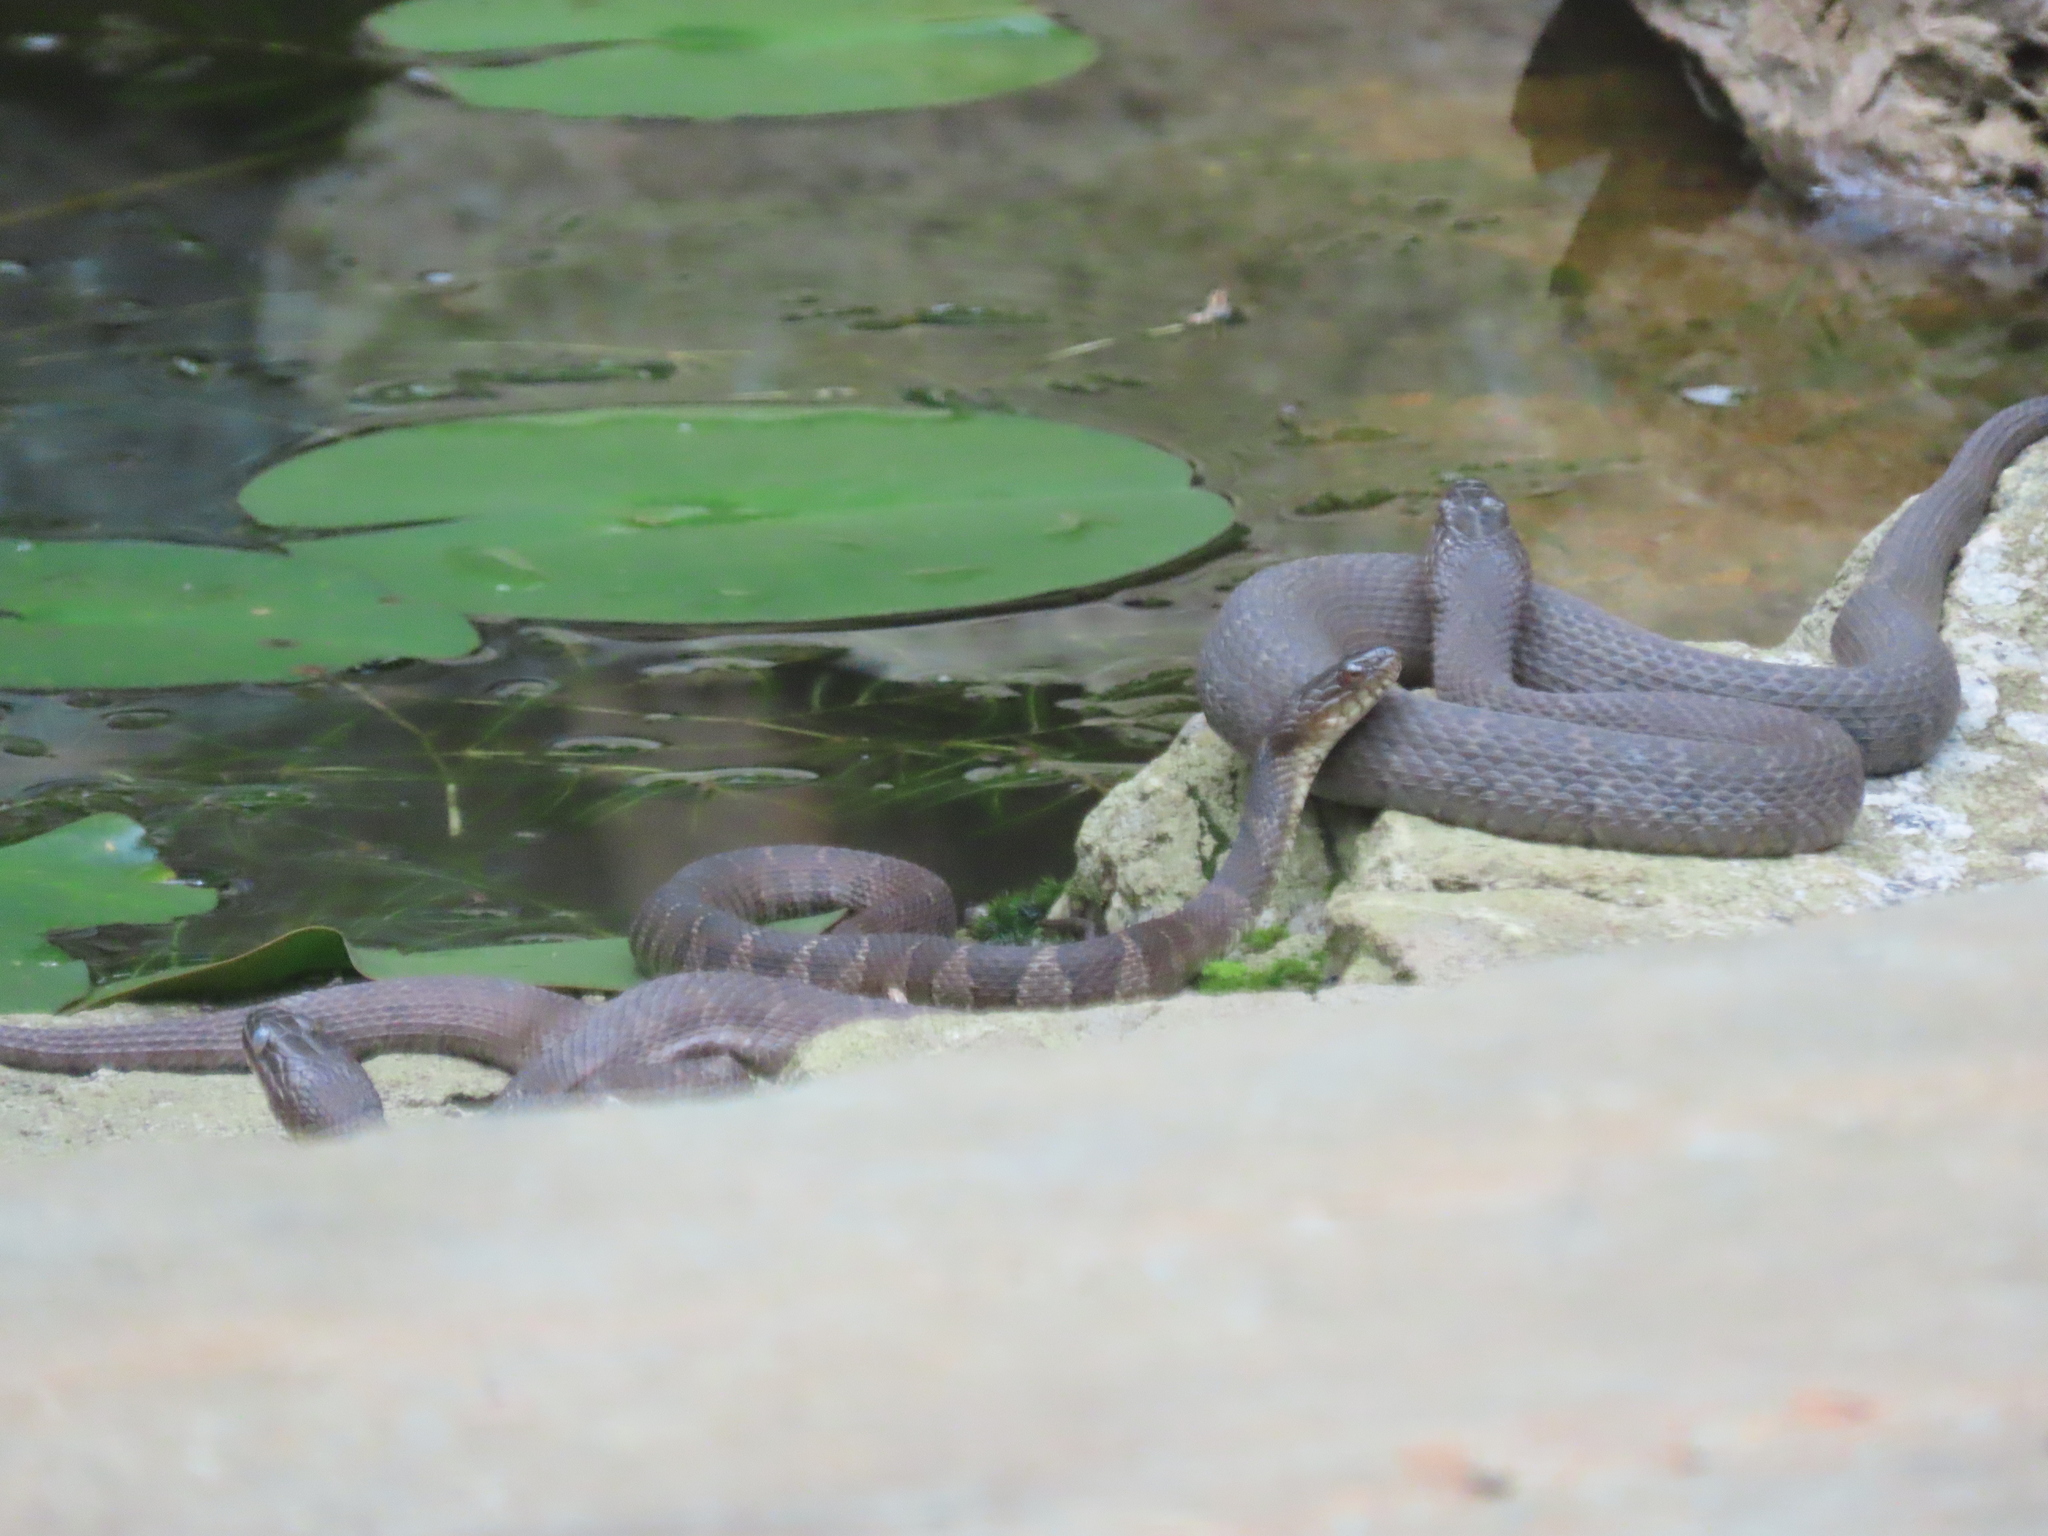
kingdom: Animalia
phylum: Chordata
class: Squamata
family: Colubridae
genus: Nerodia
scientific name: Nerodia sipedon
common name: Northern water snake
